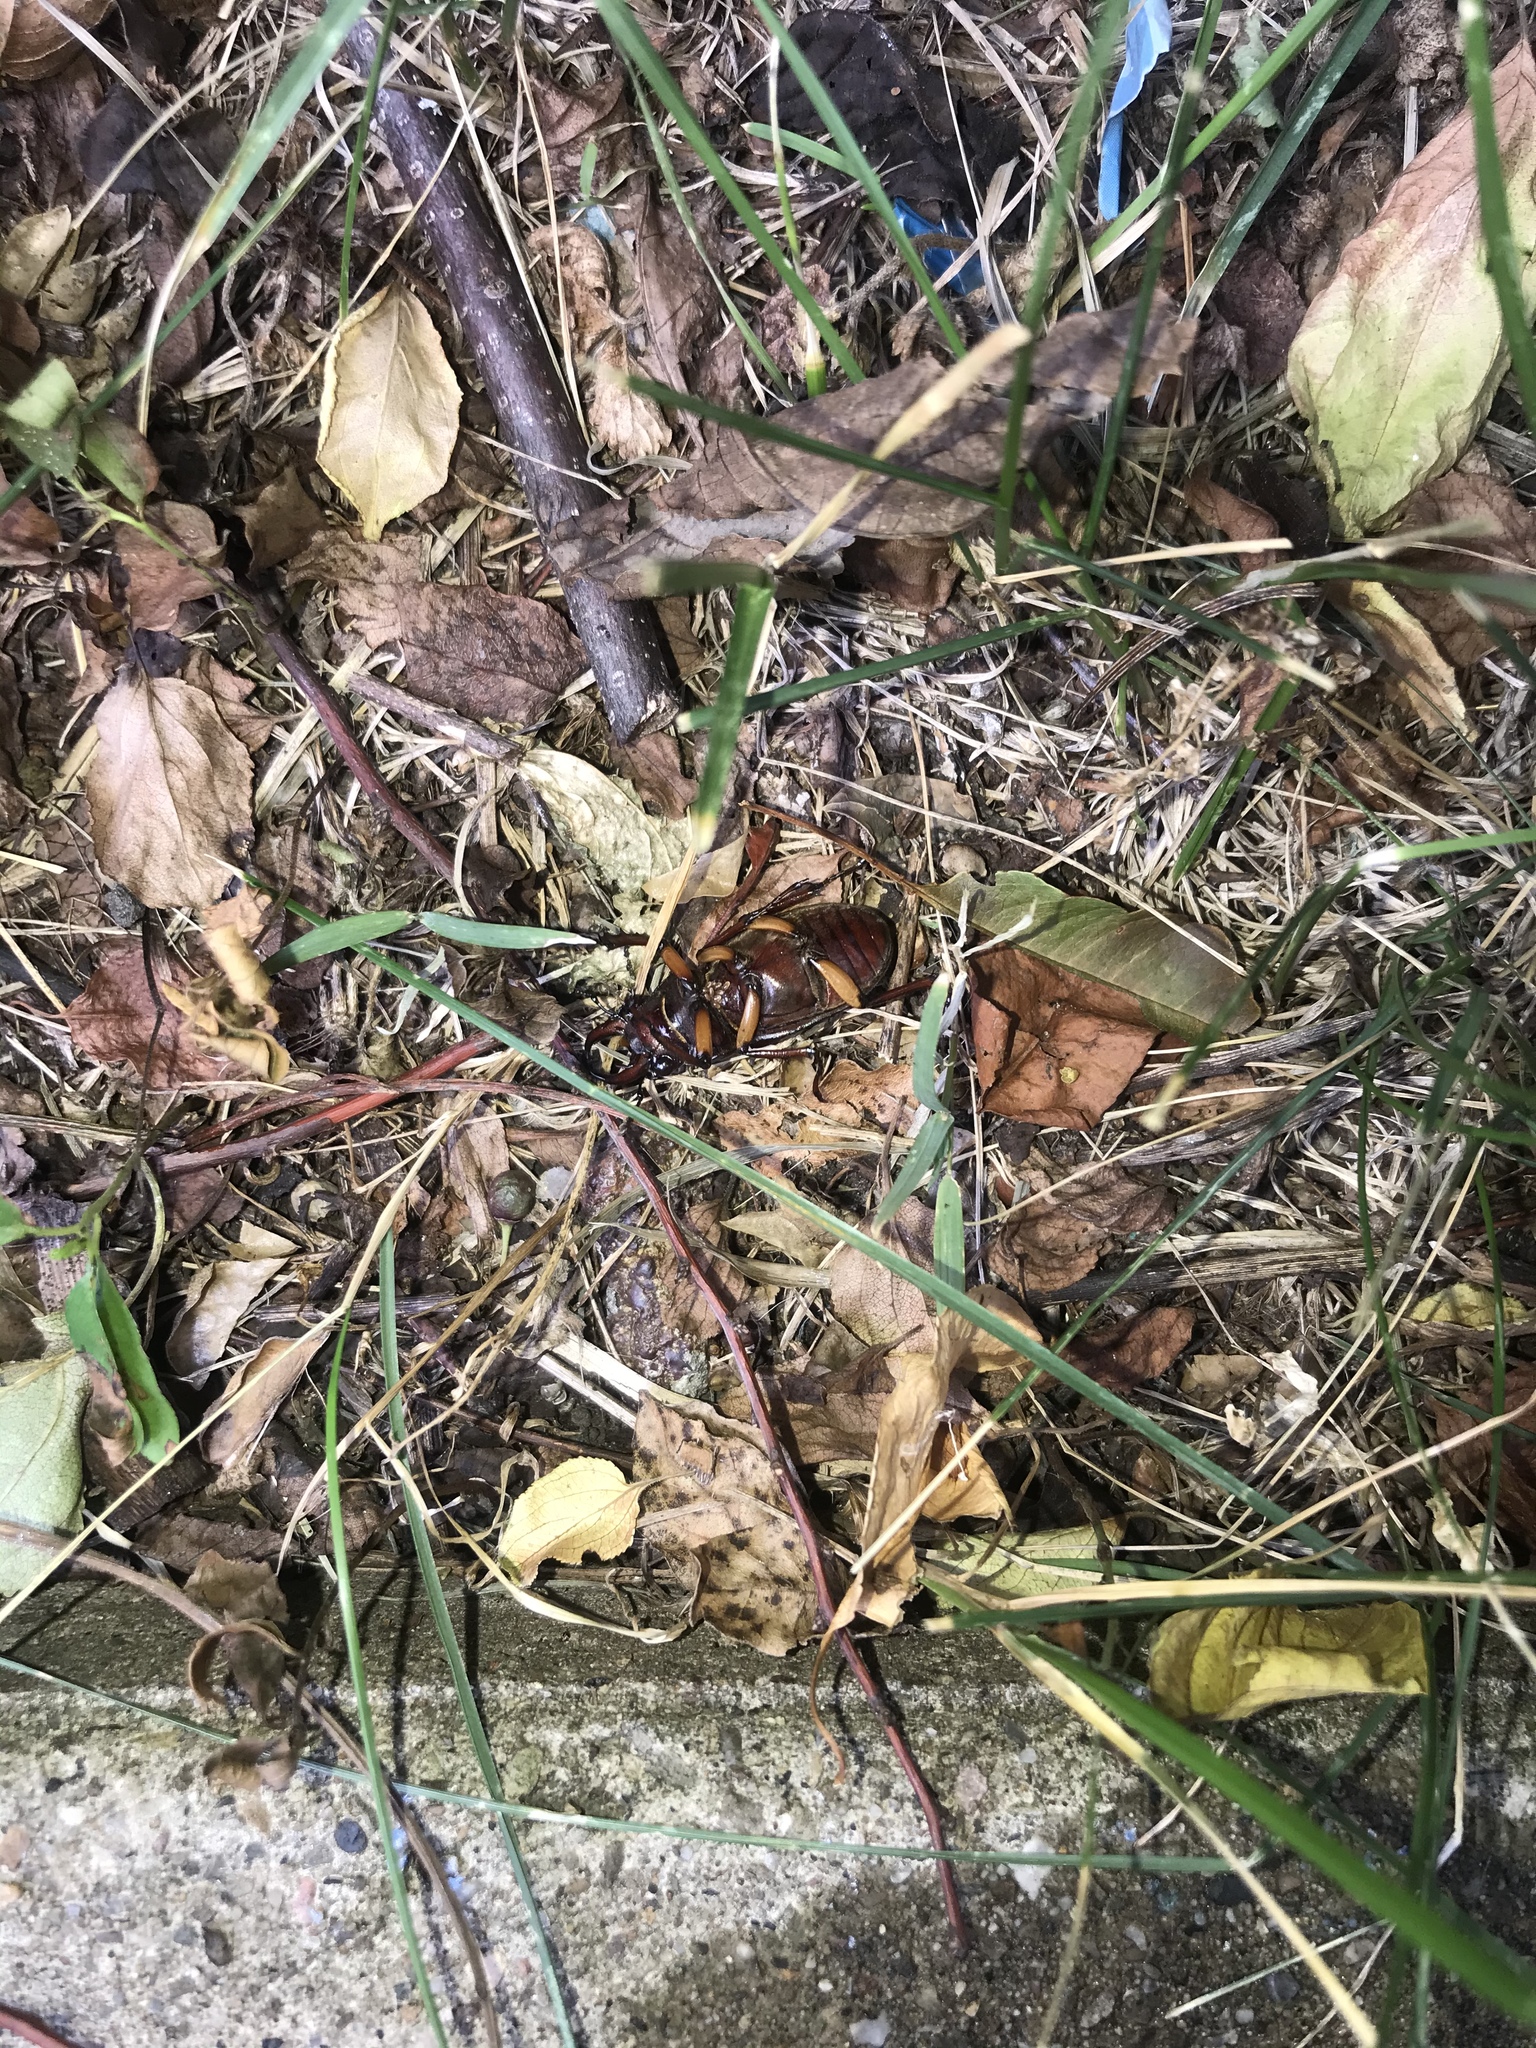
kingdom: Animalia
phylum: Arthropoda
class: Insecta
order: Coleoptera
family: Lucanidae
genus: Lucanus
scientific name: Lucanus capreolus
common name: Stag beetle
